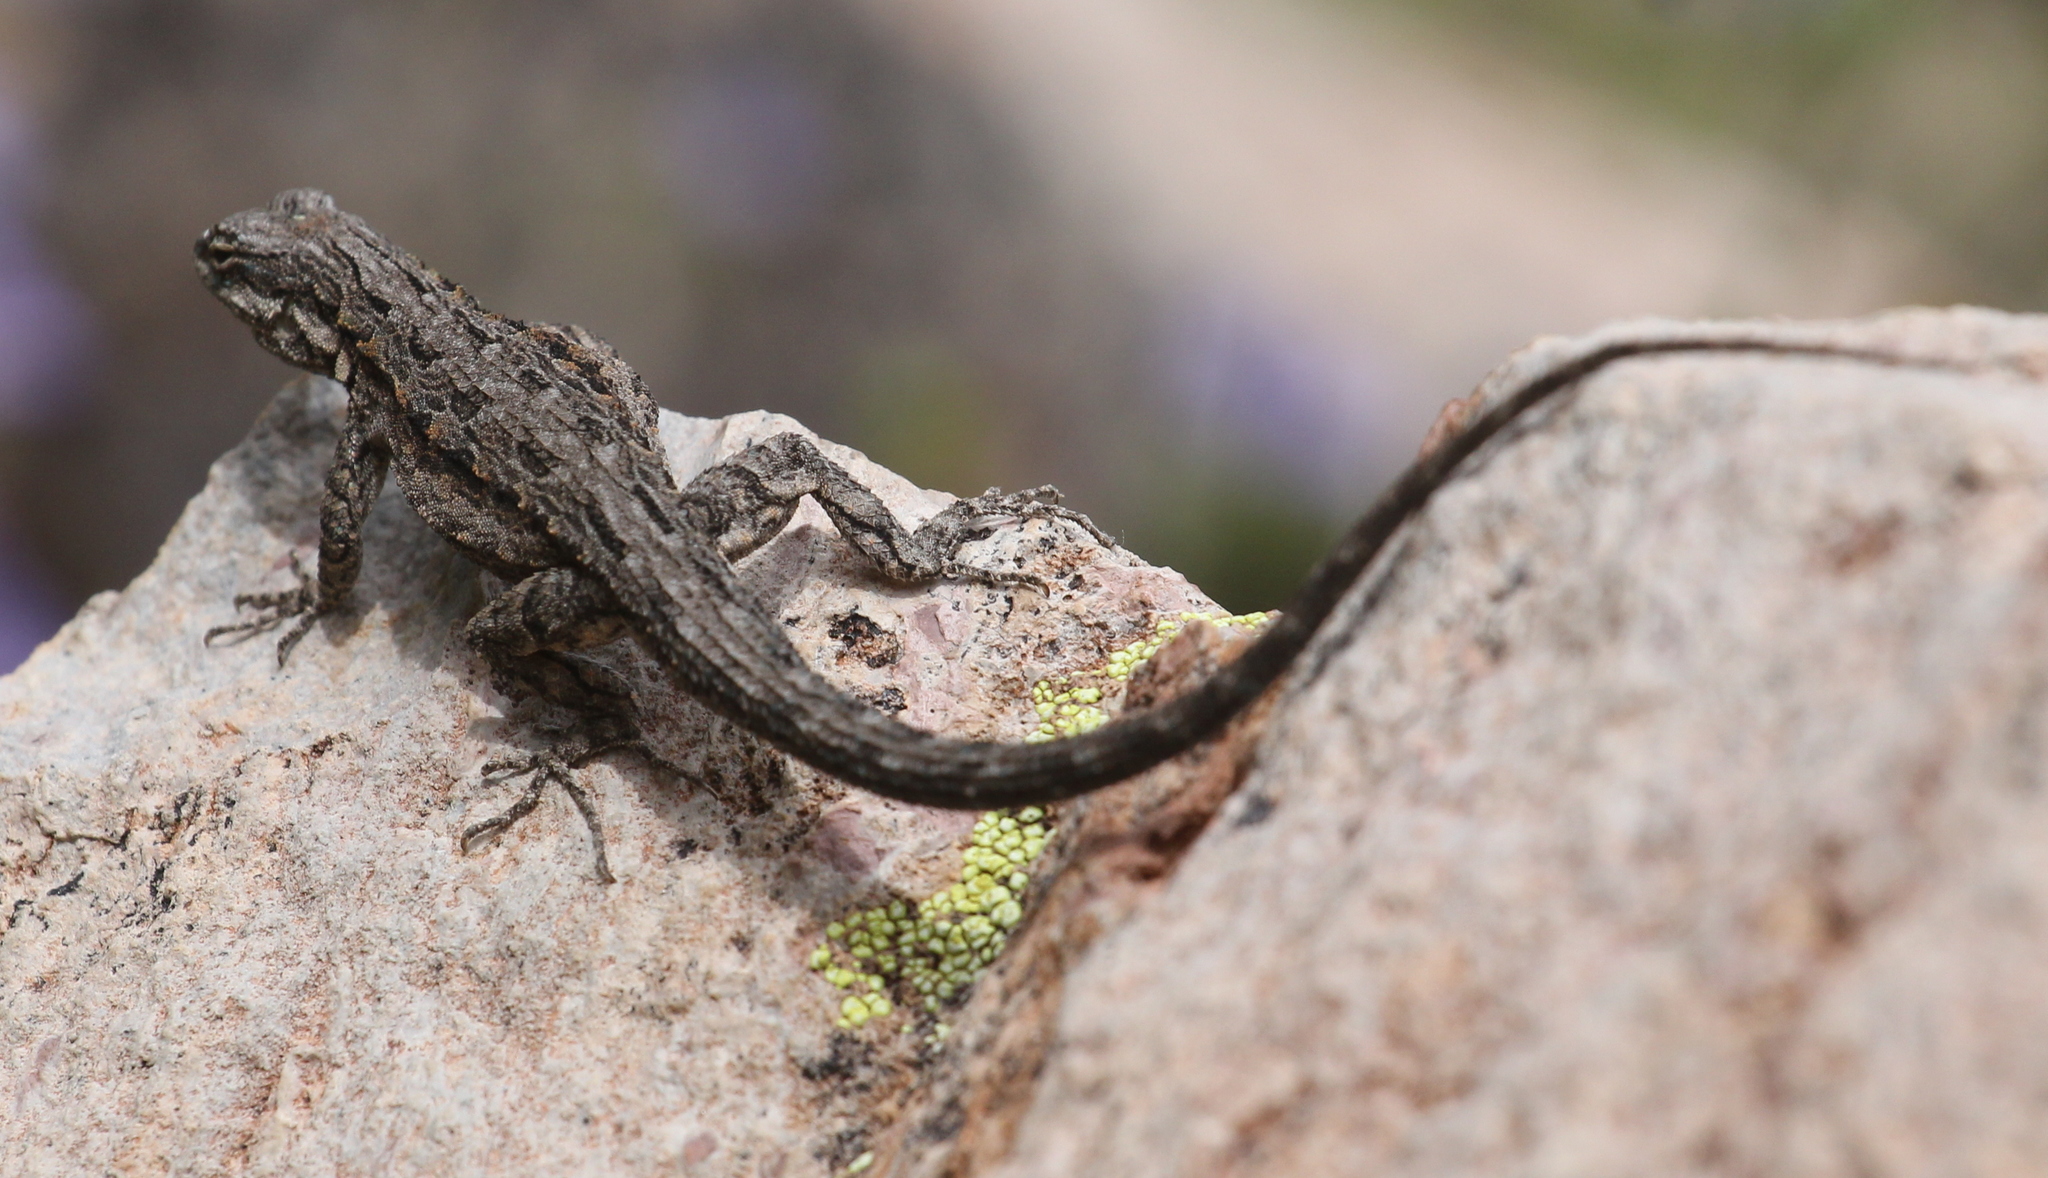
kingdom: Animalia
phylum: Chordata
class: Squamata
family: Phrynosomatidae
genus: Urosaurus
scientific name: Urosaurus ornatus
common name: Ornate tree lizard
